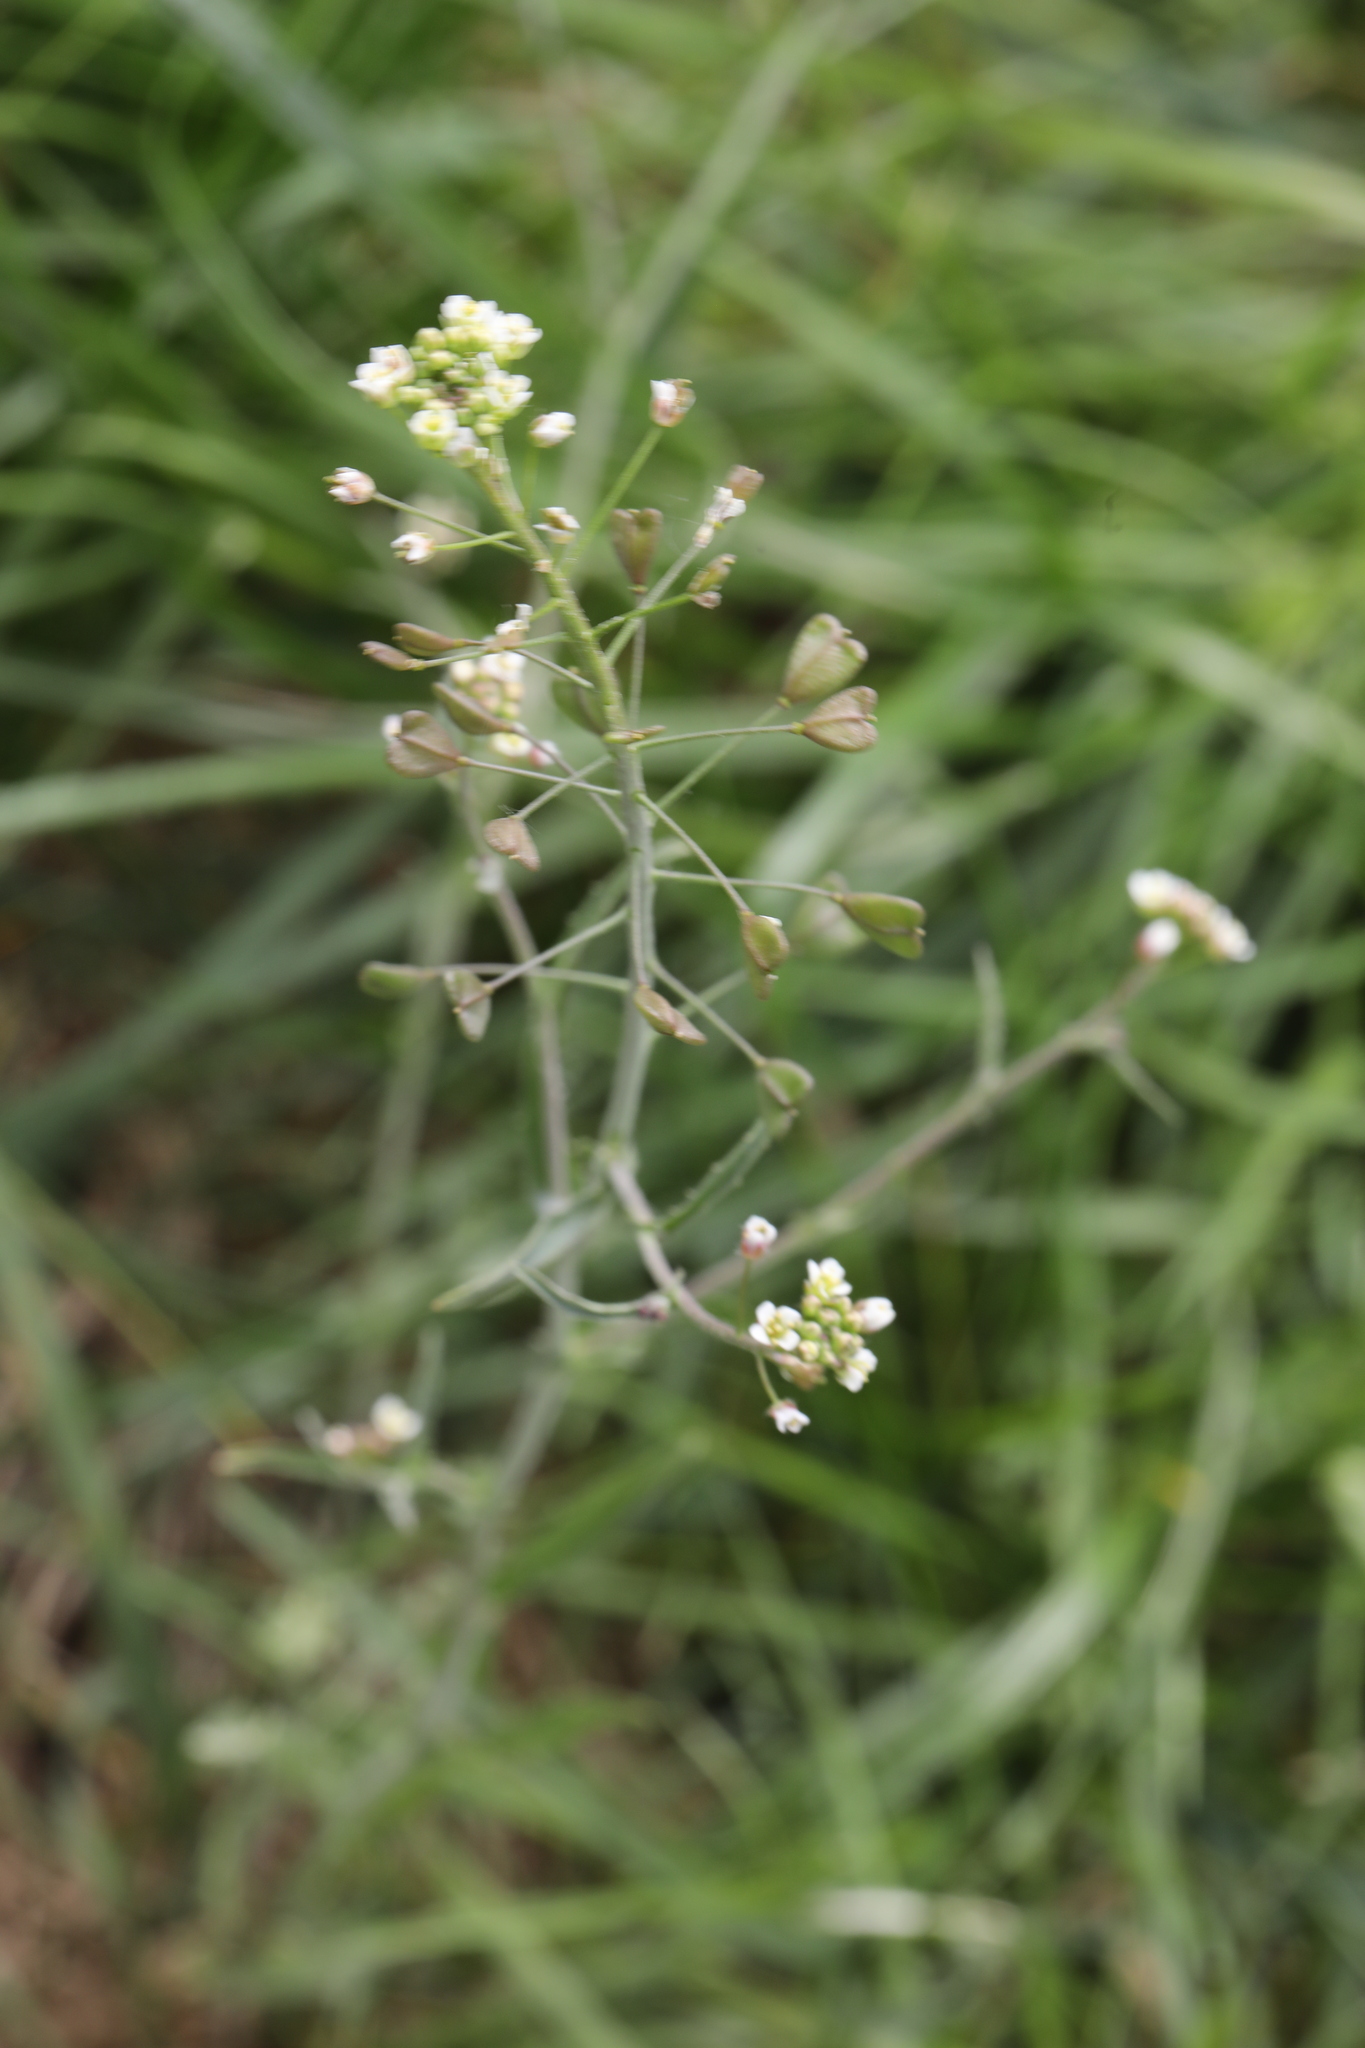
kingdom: Plantae
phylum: Tracheophyta
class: Magnoliopsida
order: Brassicales
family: Brassicaceae
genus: Capsella
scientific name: Capsella bursa-pastoris
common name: Shepherd's purse
